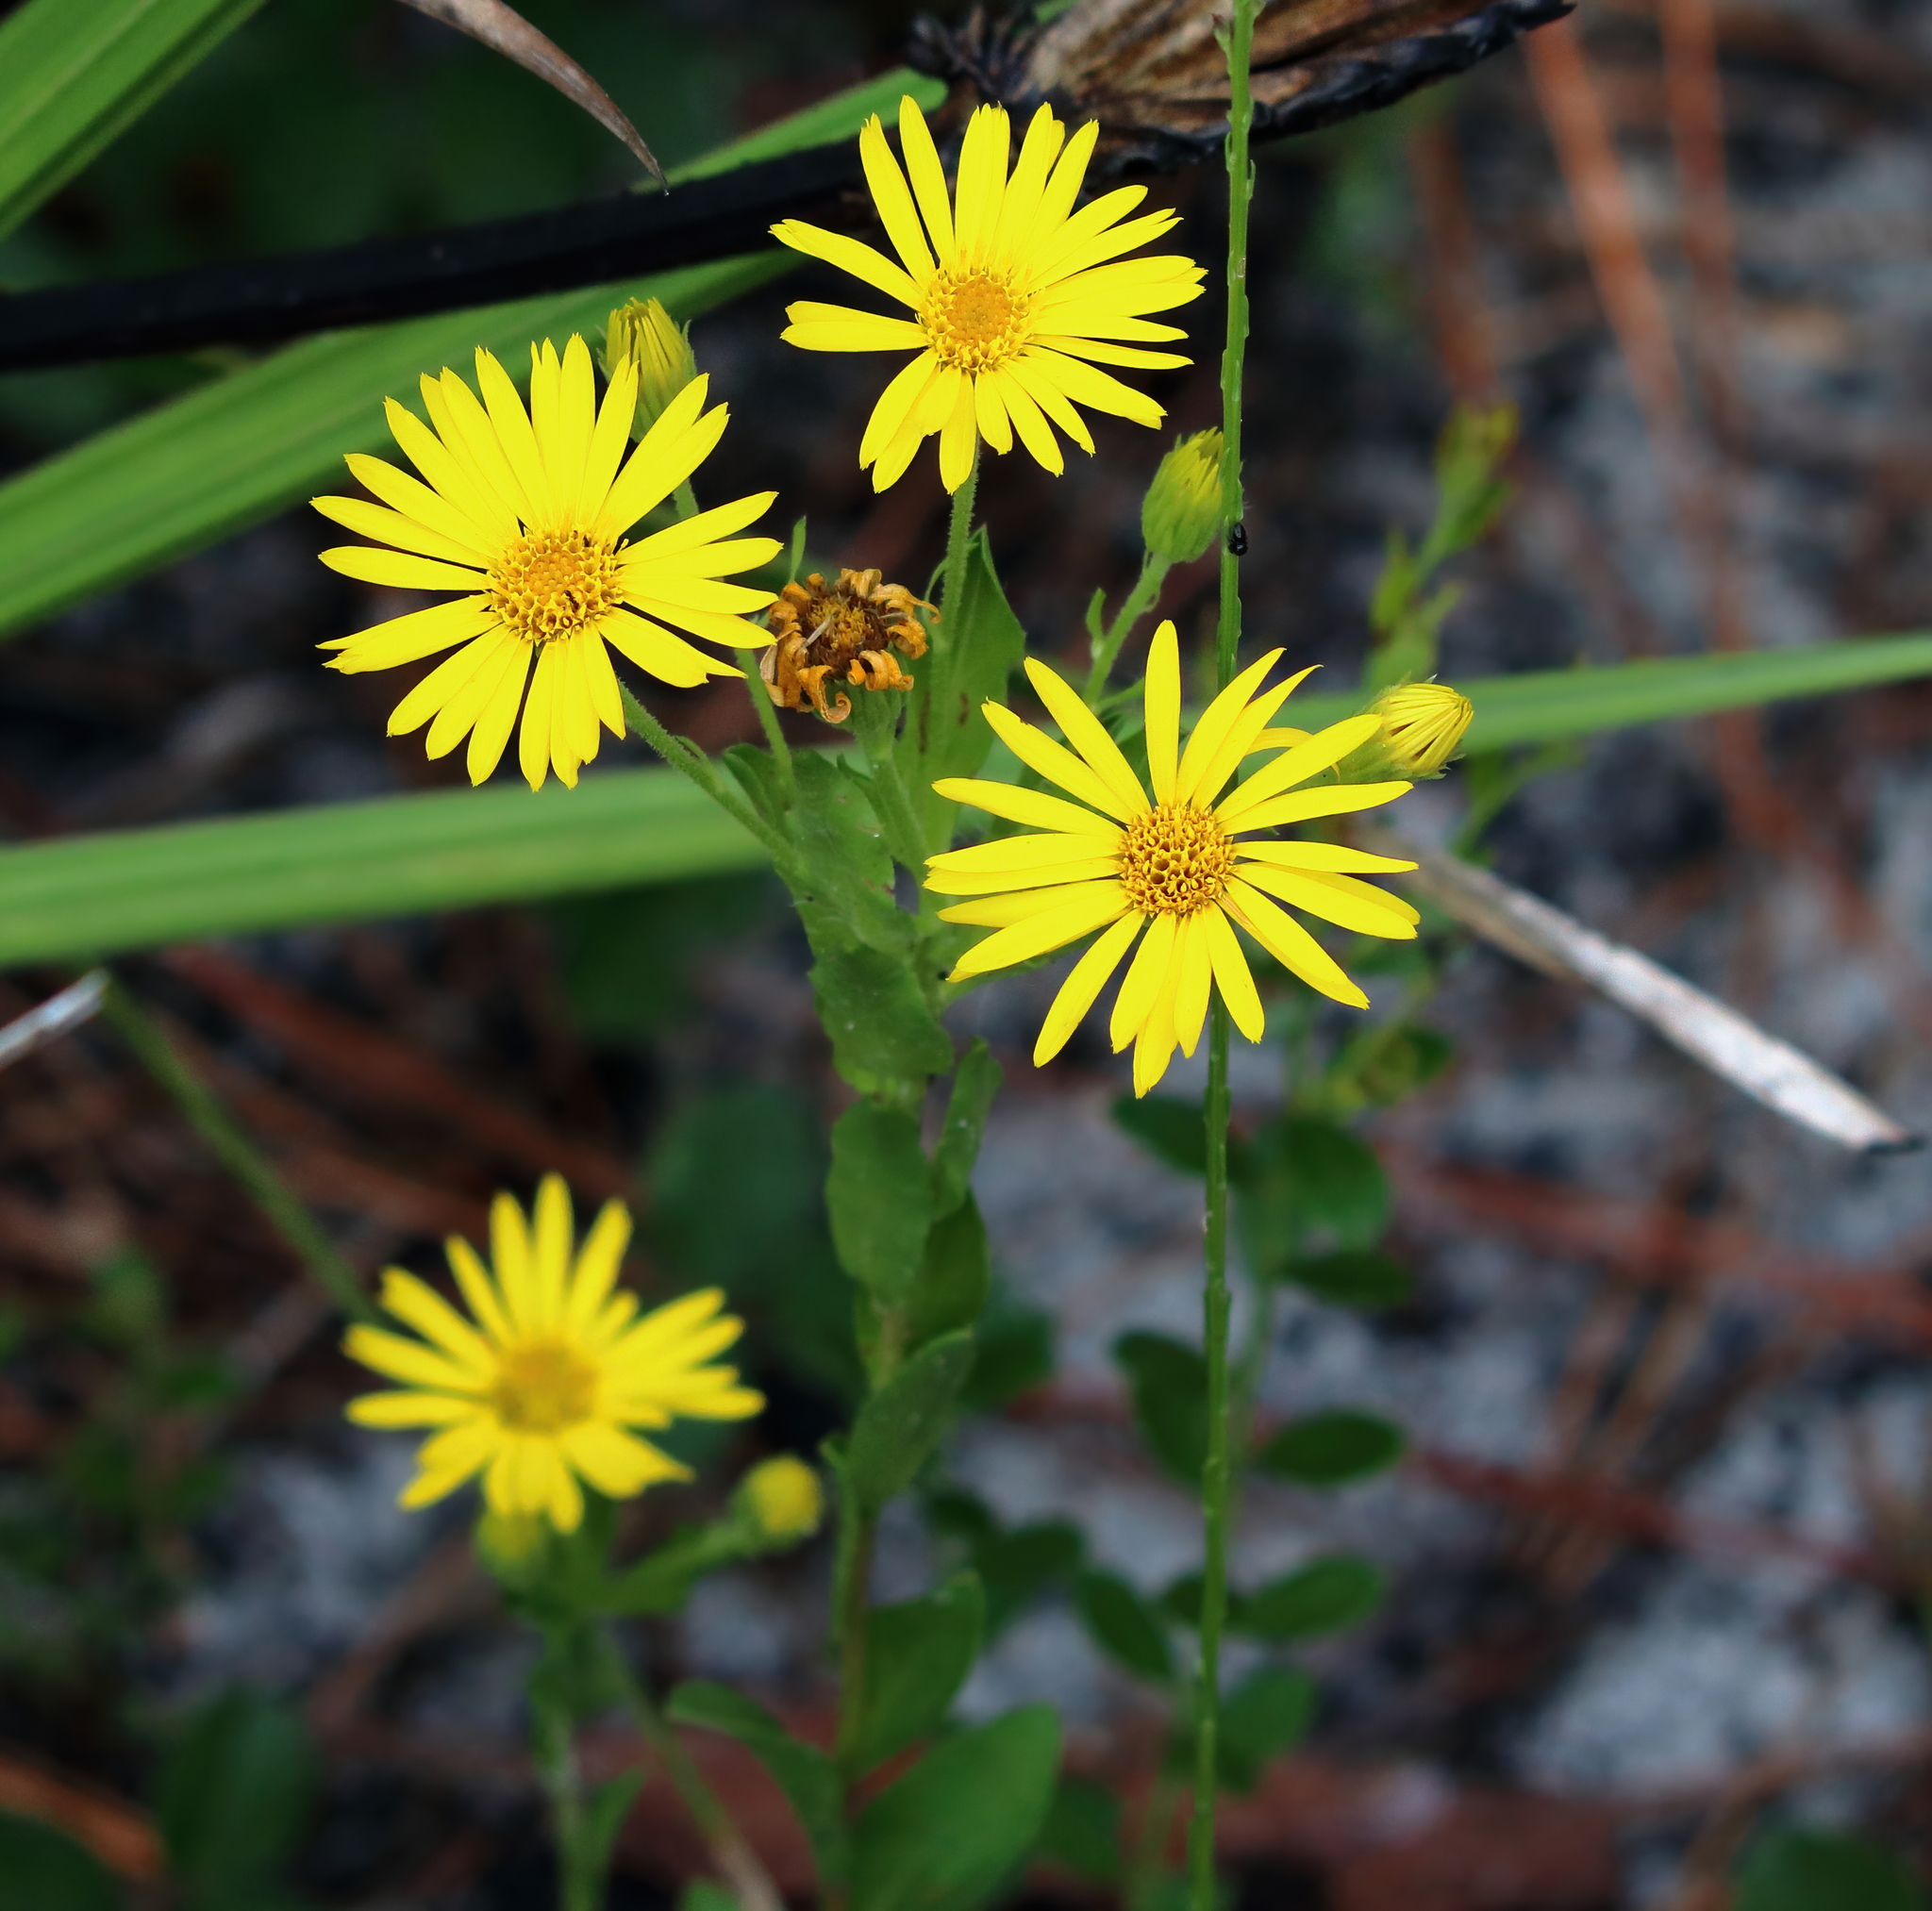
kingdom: Plantae
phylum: Tracheophyta
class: Magnoliopsida
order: Asterales
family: Asteraceae
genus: Chrysopsis
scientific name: Chrysopsis mariana
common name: Maryland golden-aster
